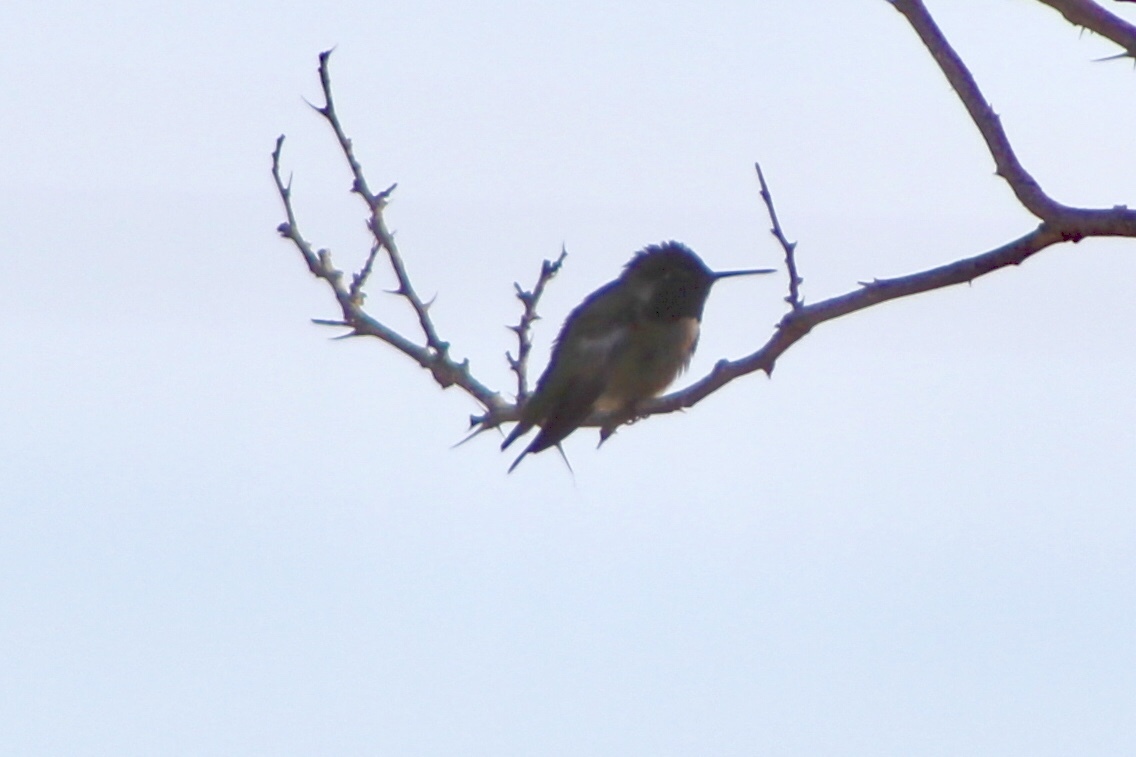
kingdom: Animalia
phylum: Chordata
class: Aves
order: Apodiformes
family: Trochilidae
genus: Calypte
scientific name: Calypte anna
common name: Anna's hummingbird
